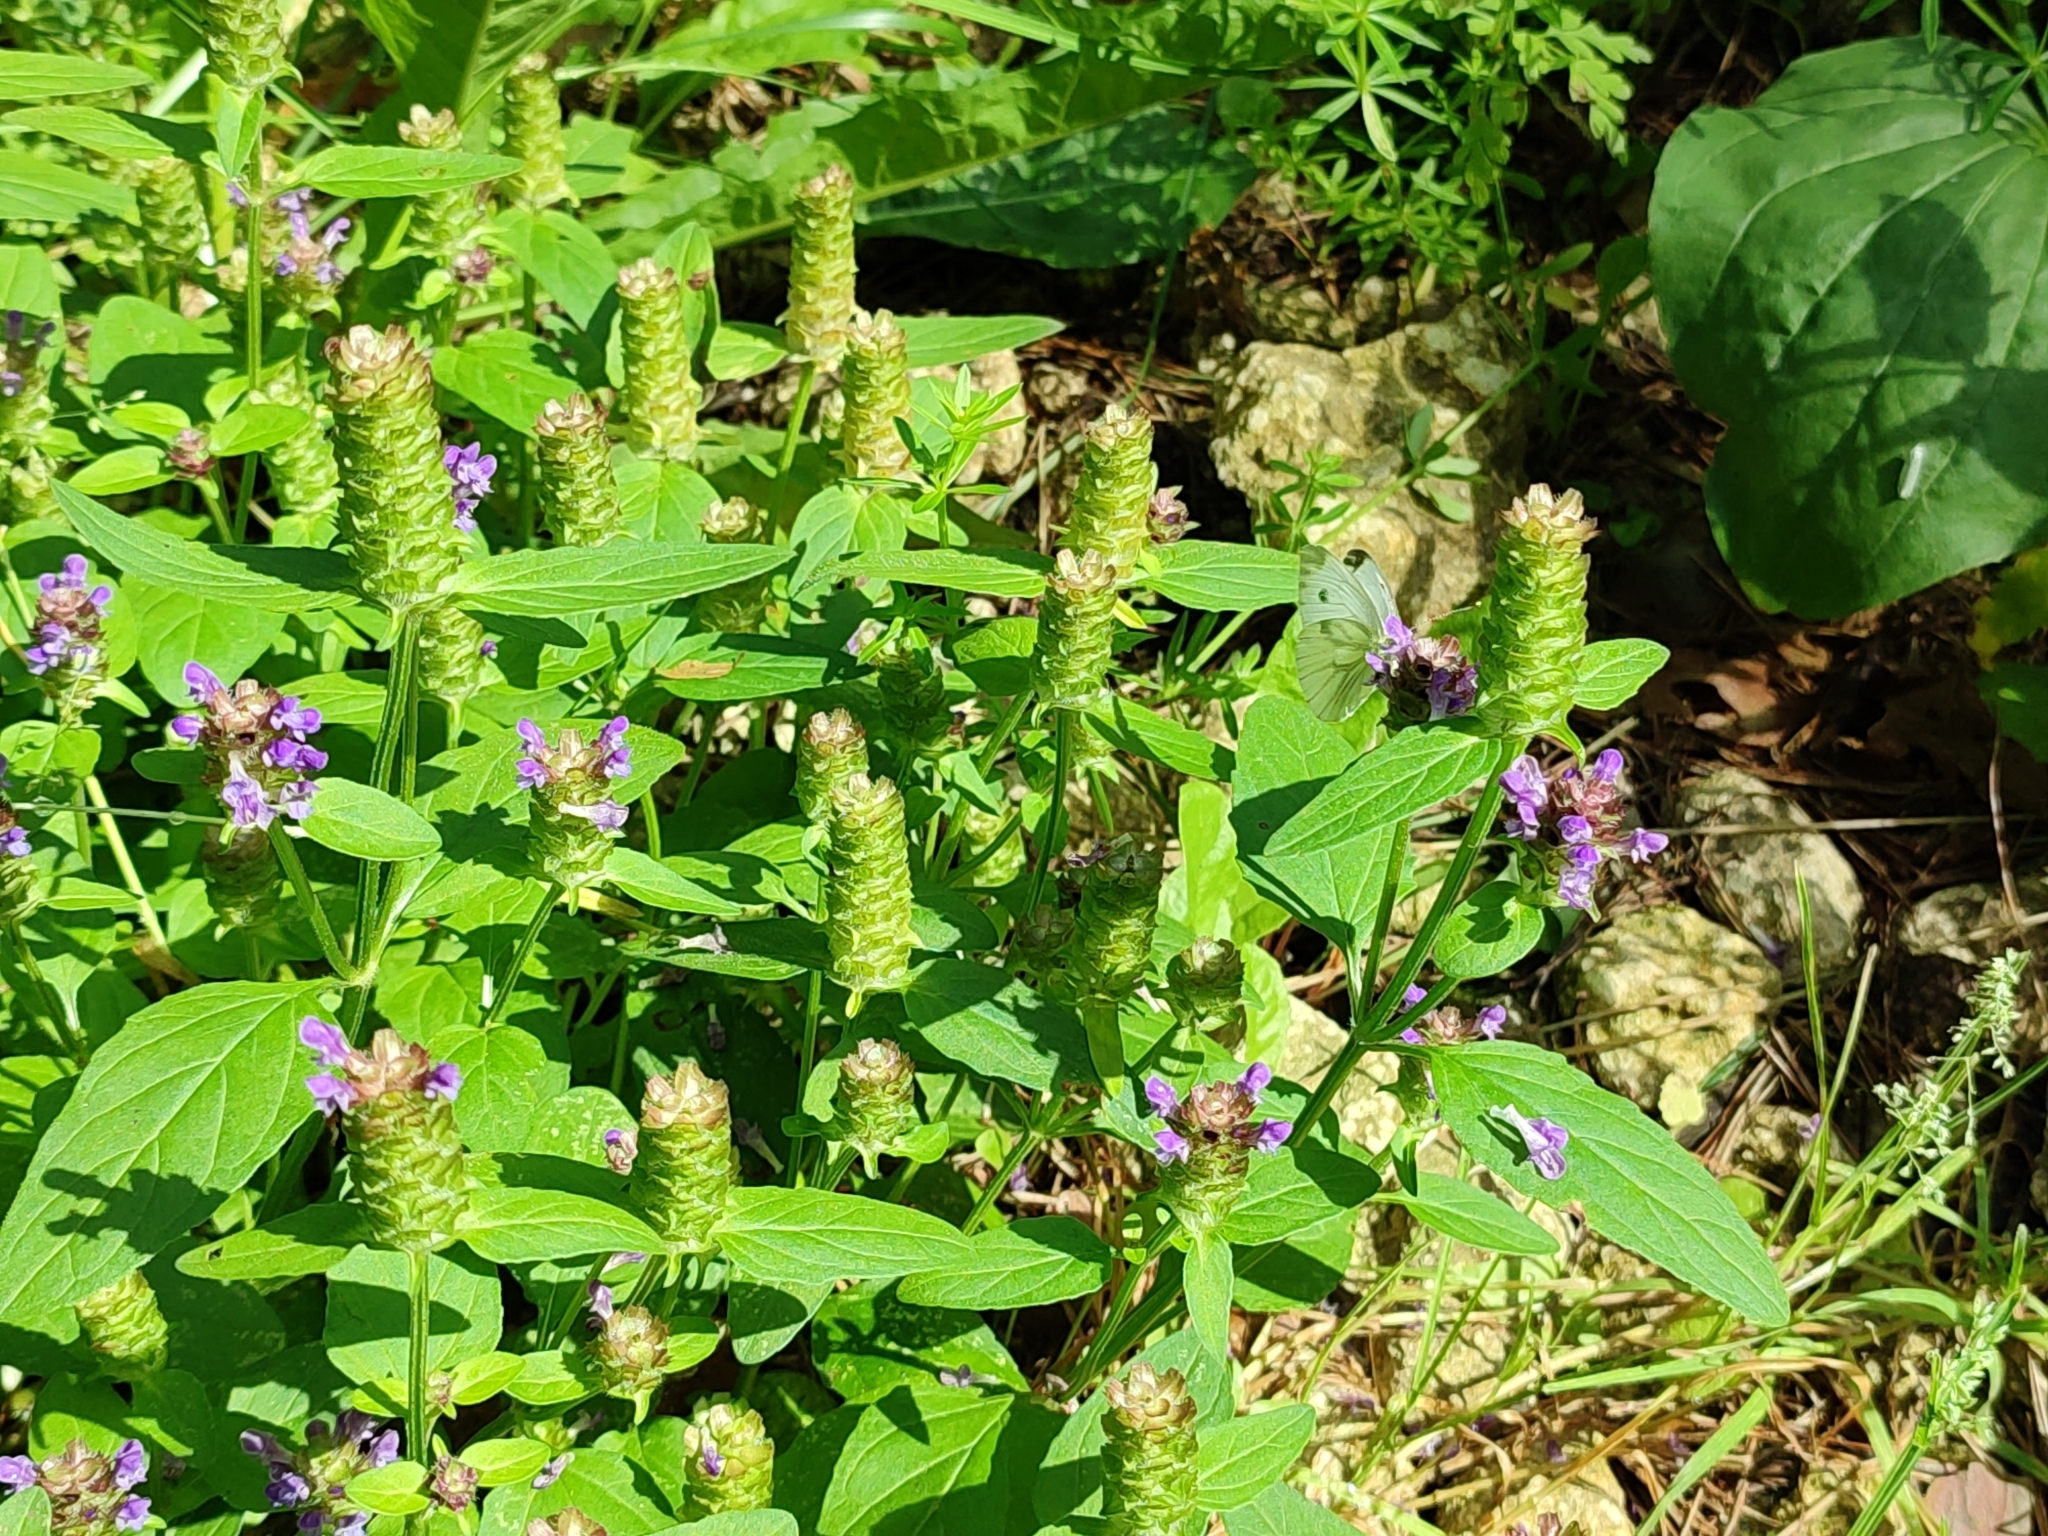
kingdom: Plantae
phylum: Tracheophyta
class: Magnoliopsida
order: Lamiales
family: Lamiaceae
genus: Prunella
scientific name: Prunella vulgaris
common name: Heal-all
